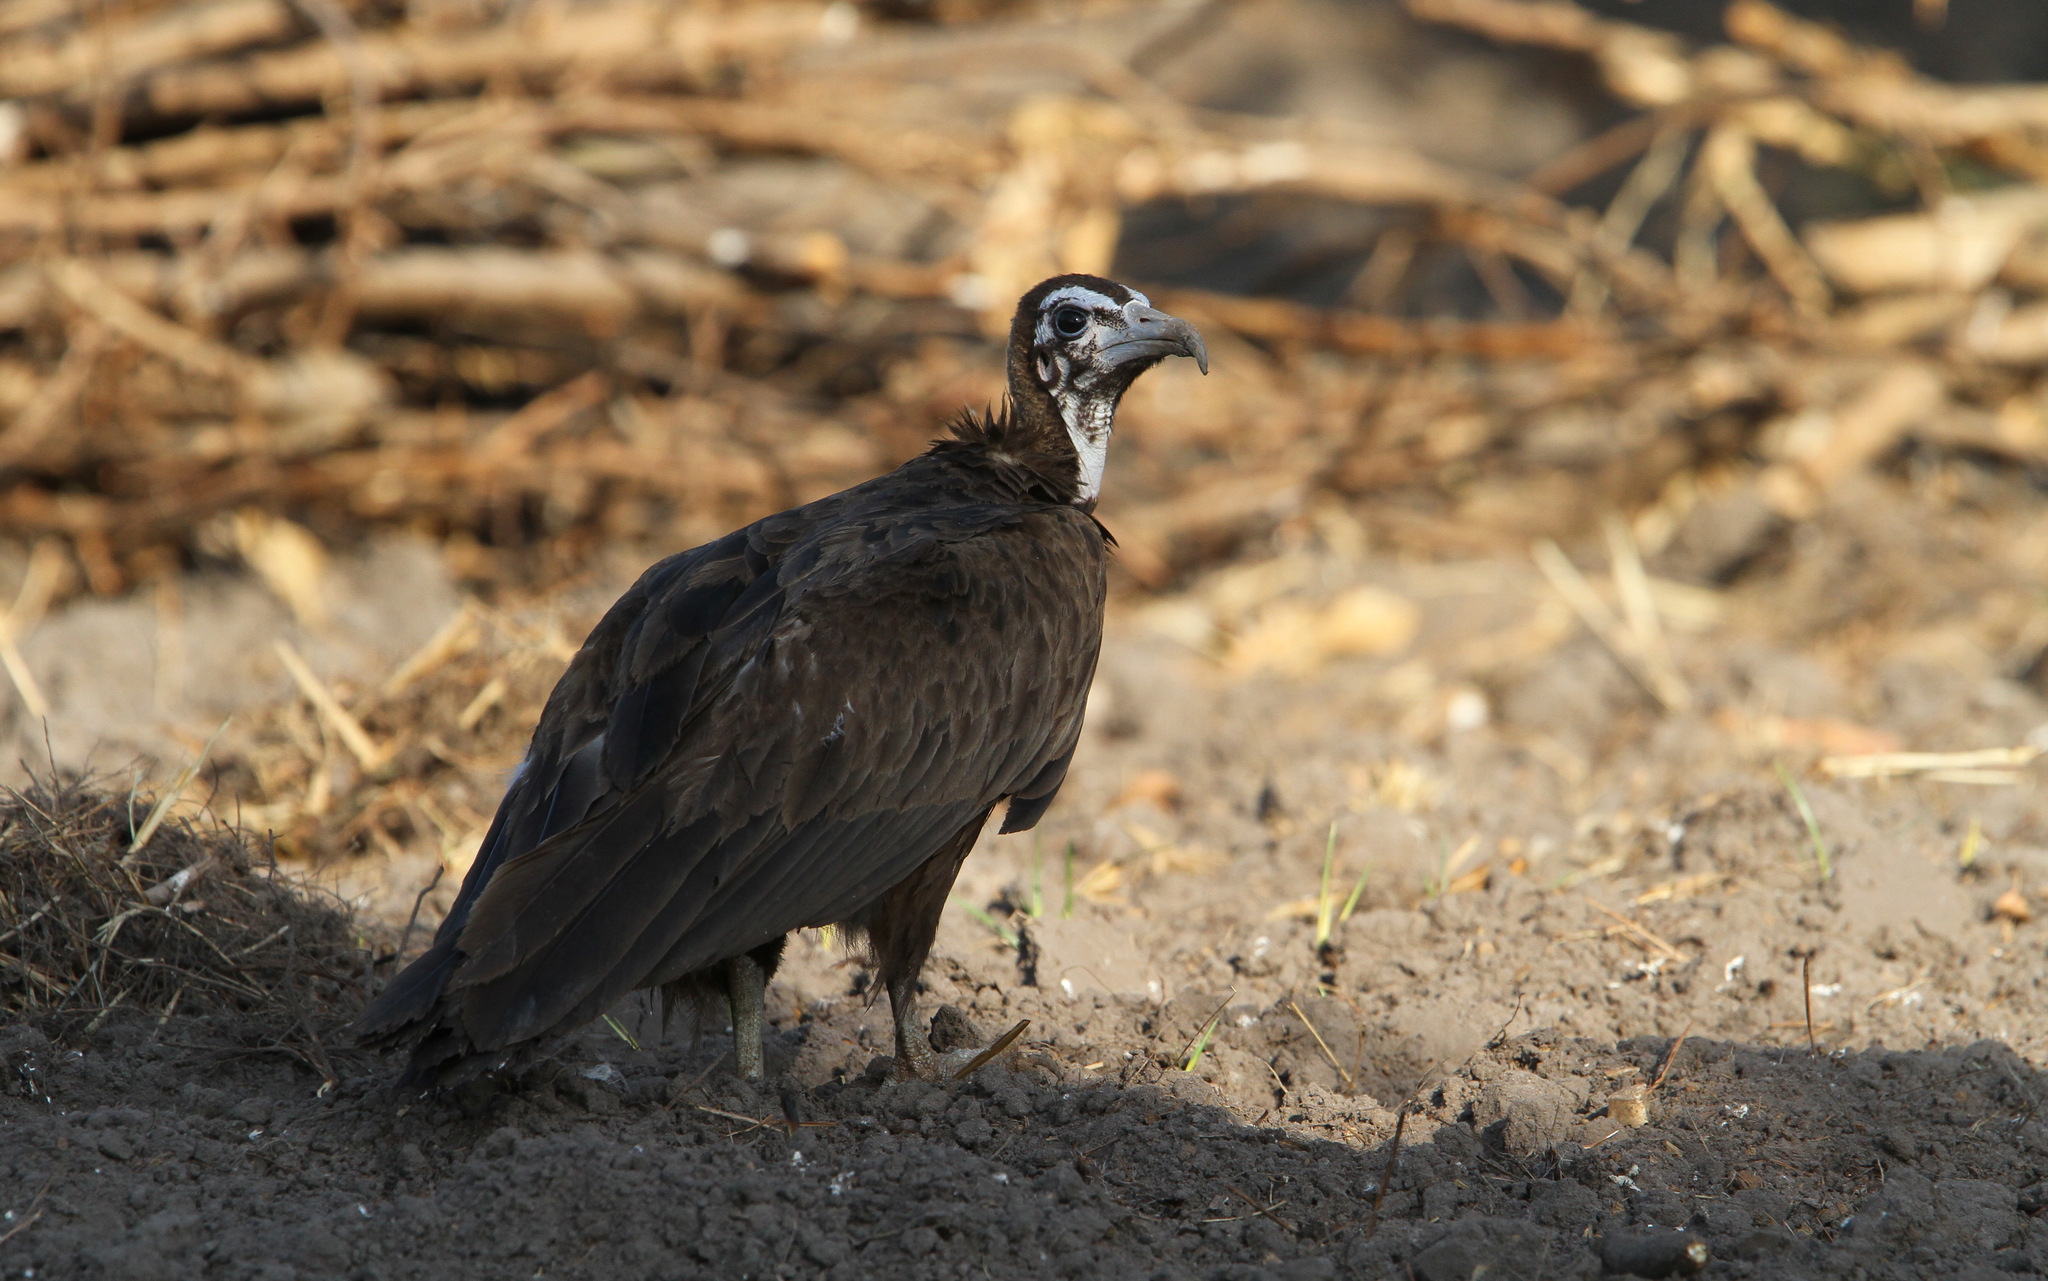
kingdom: Animalia
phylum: Chordata
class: Aves
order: Accipitriformes
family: Accipitridae
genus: Necrosyrtes
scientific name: Necrosyrtes monachus
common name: Hooded vulture
